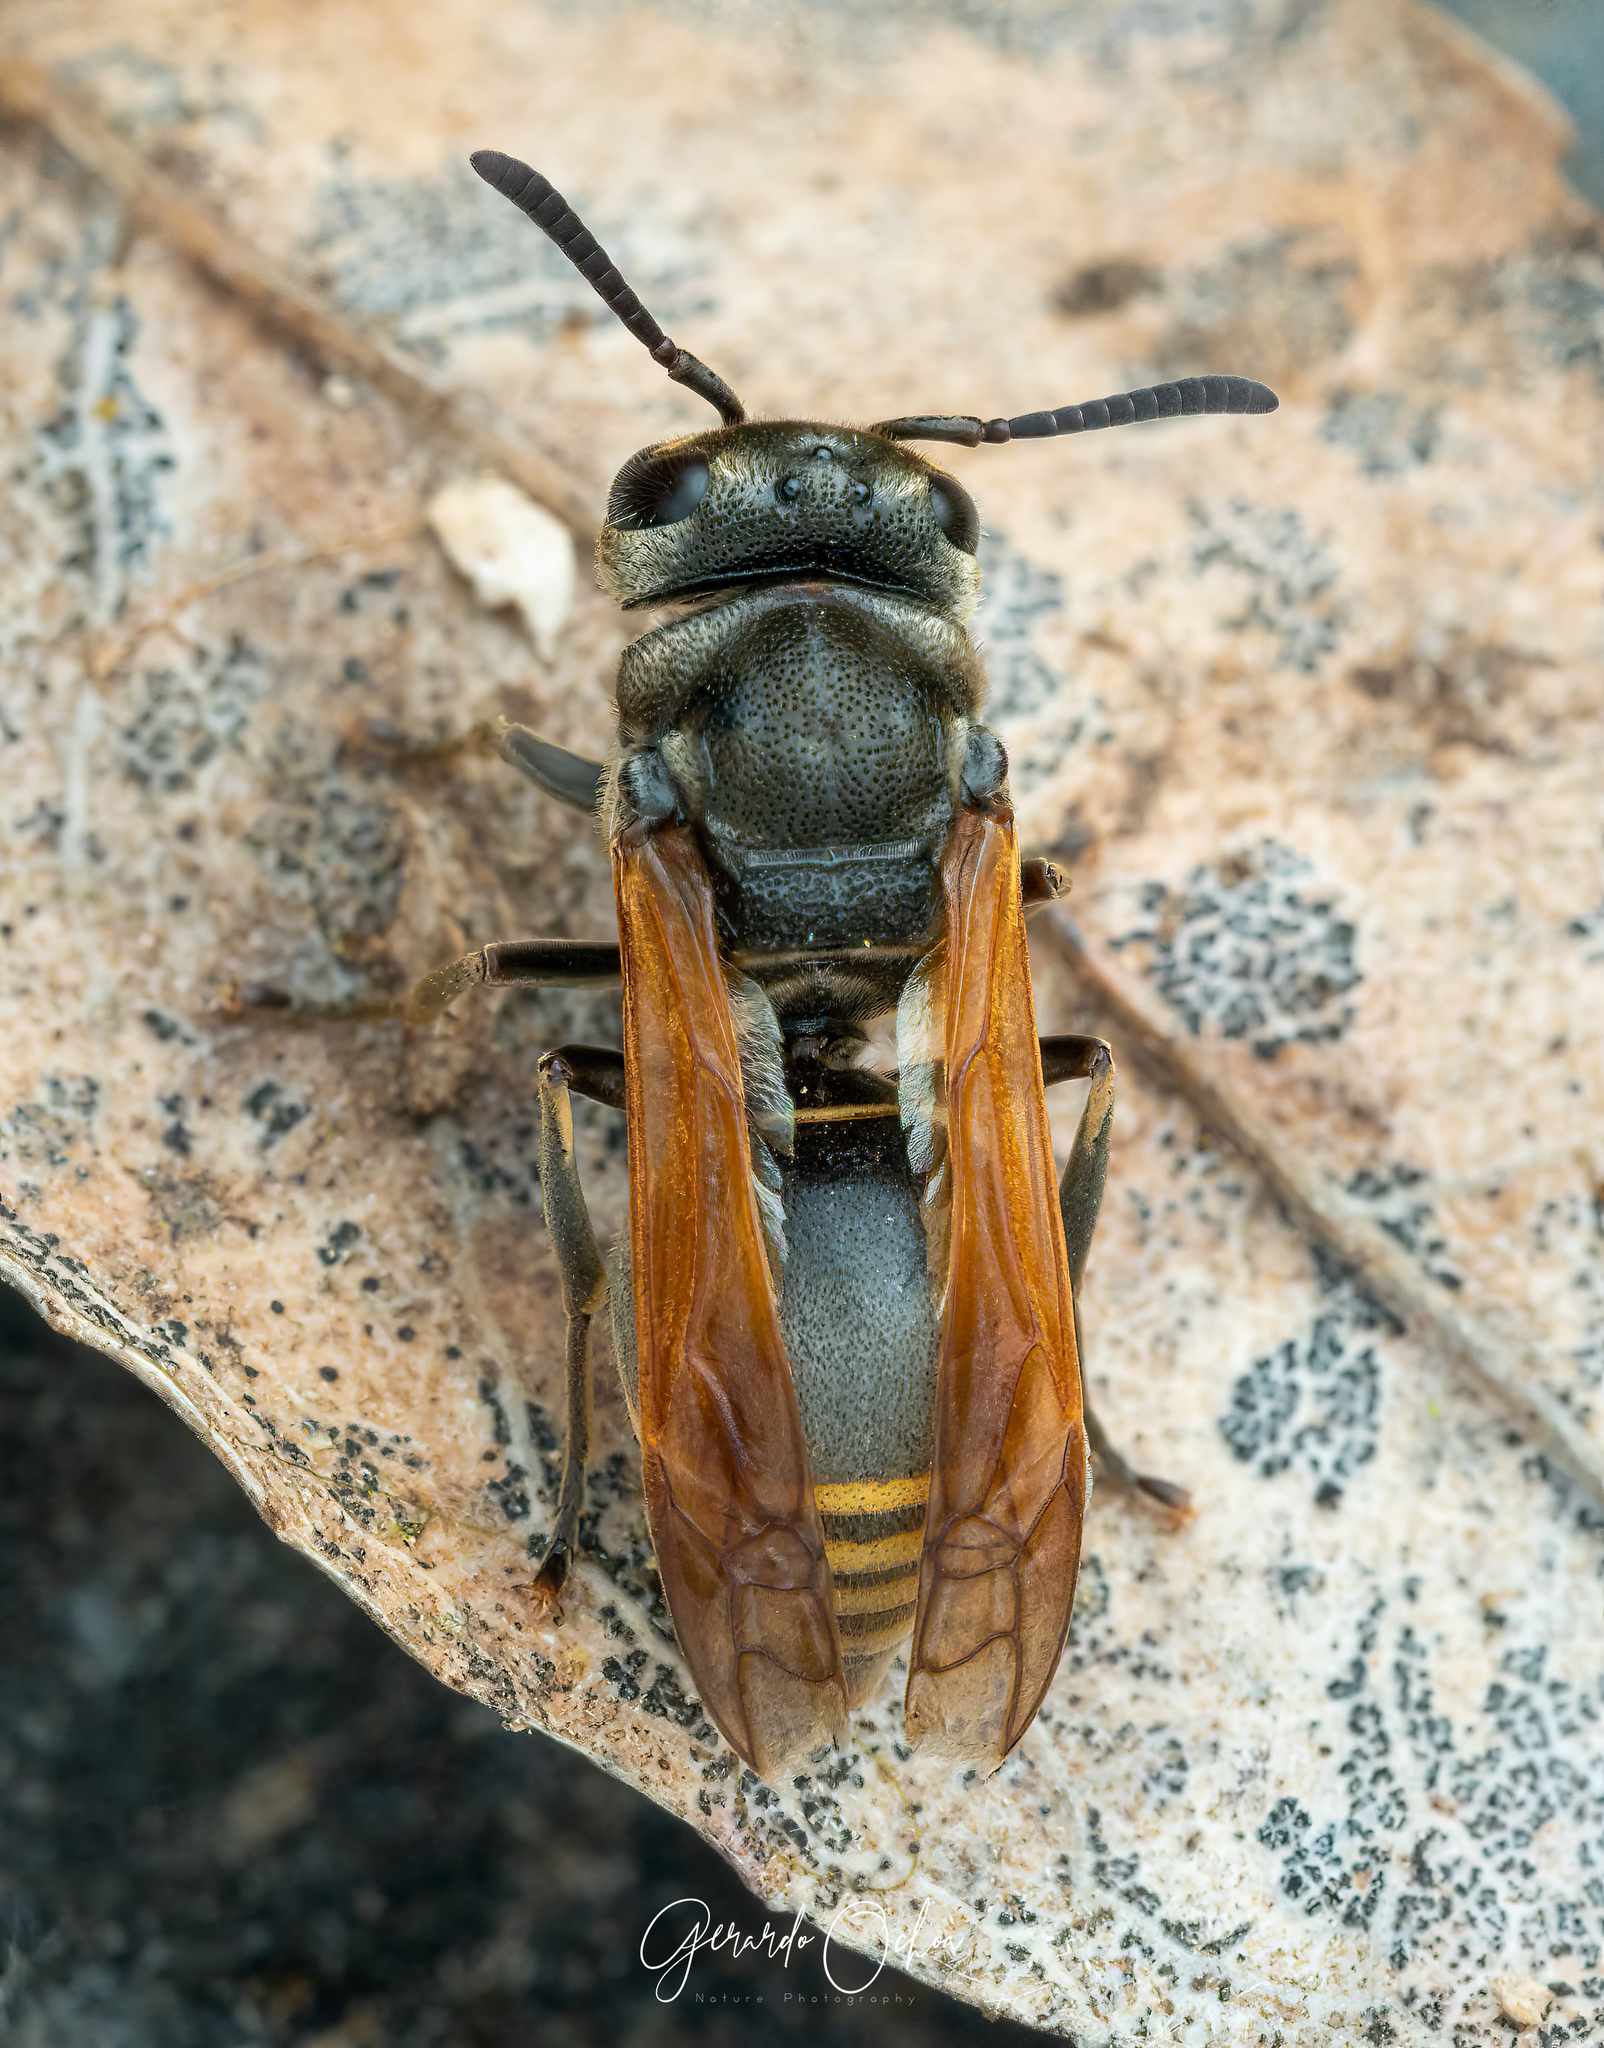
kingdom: Animalia
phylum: Arthropoda
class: Insecta
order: Hymenoptera
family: Vespidae
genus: Brachygastra
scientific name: Brachygastra mellifica
